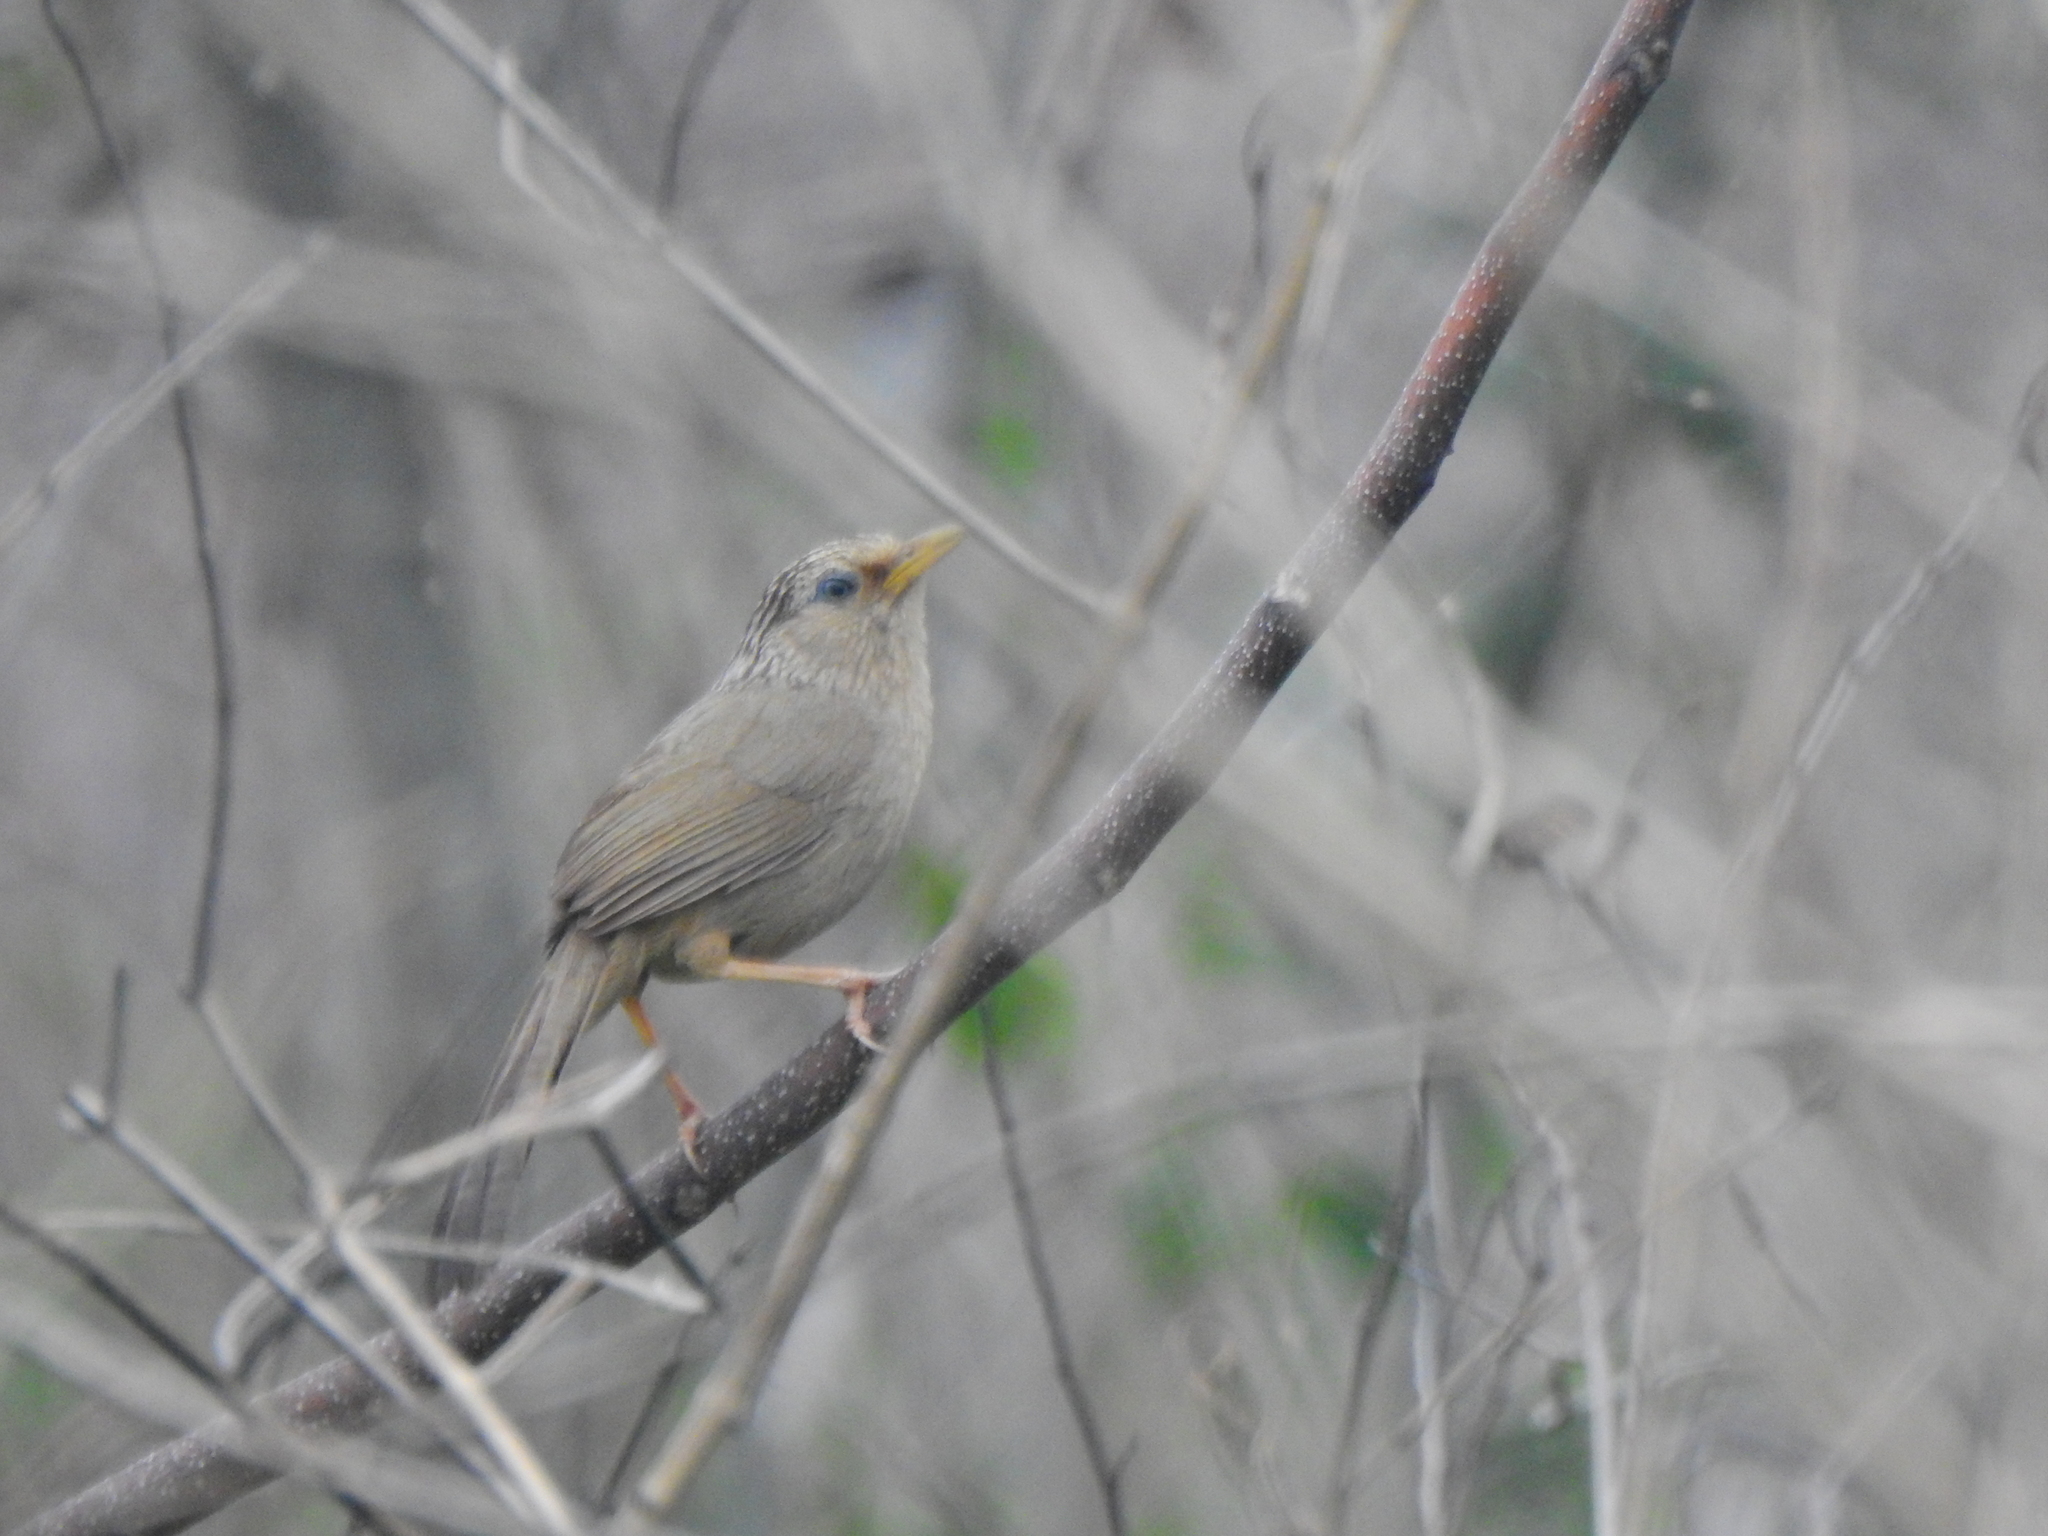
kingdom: Animalia
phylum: Chordata
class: Aves
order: Passeriformes
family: Leiothrichidae
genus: Garrulax
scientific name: Garrulax taewanus
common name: Taiwan hwamei
